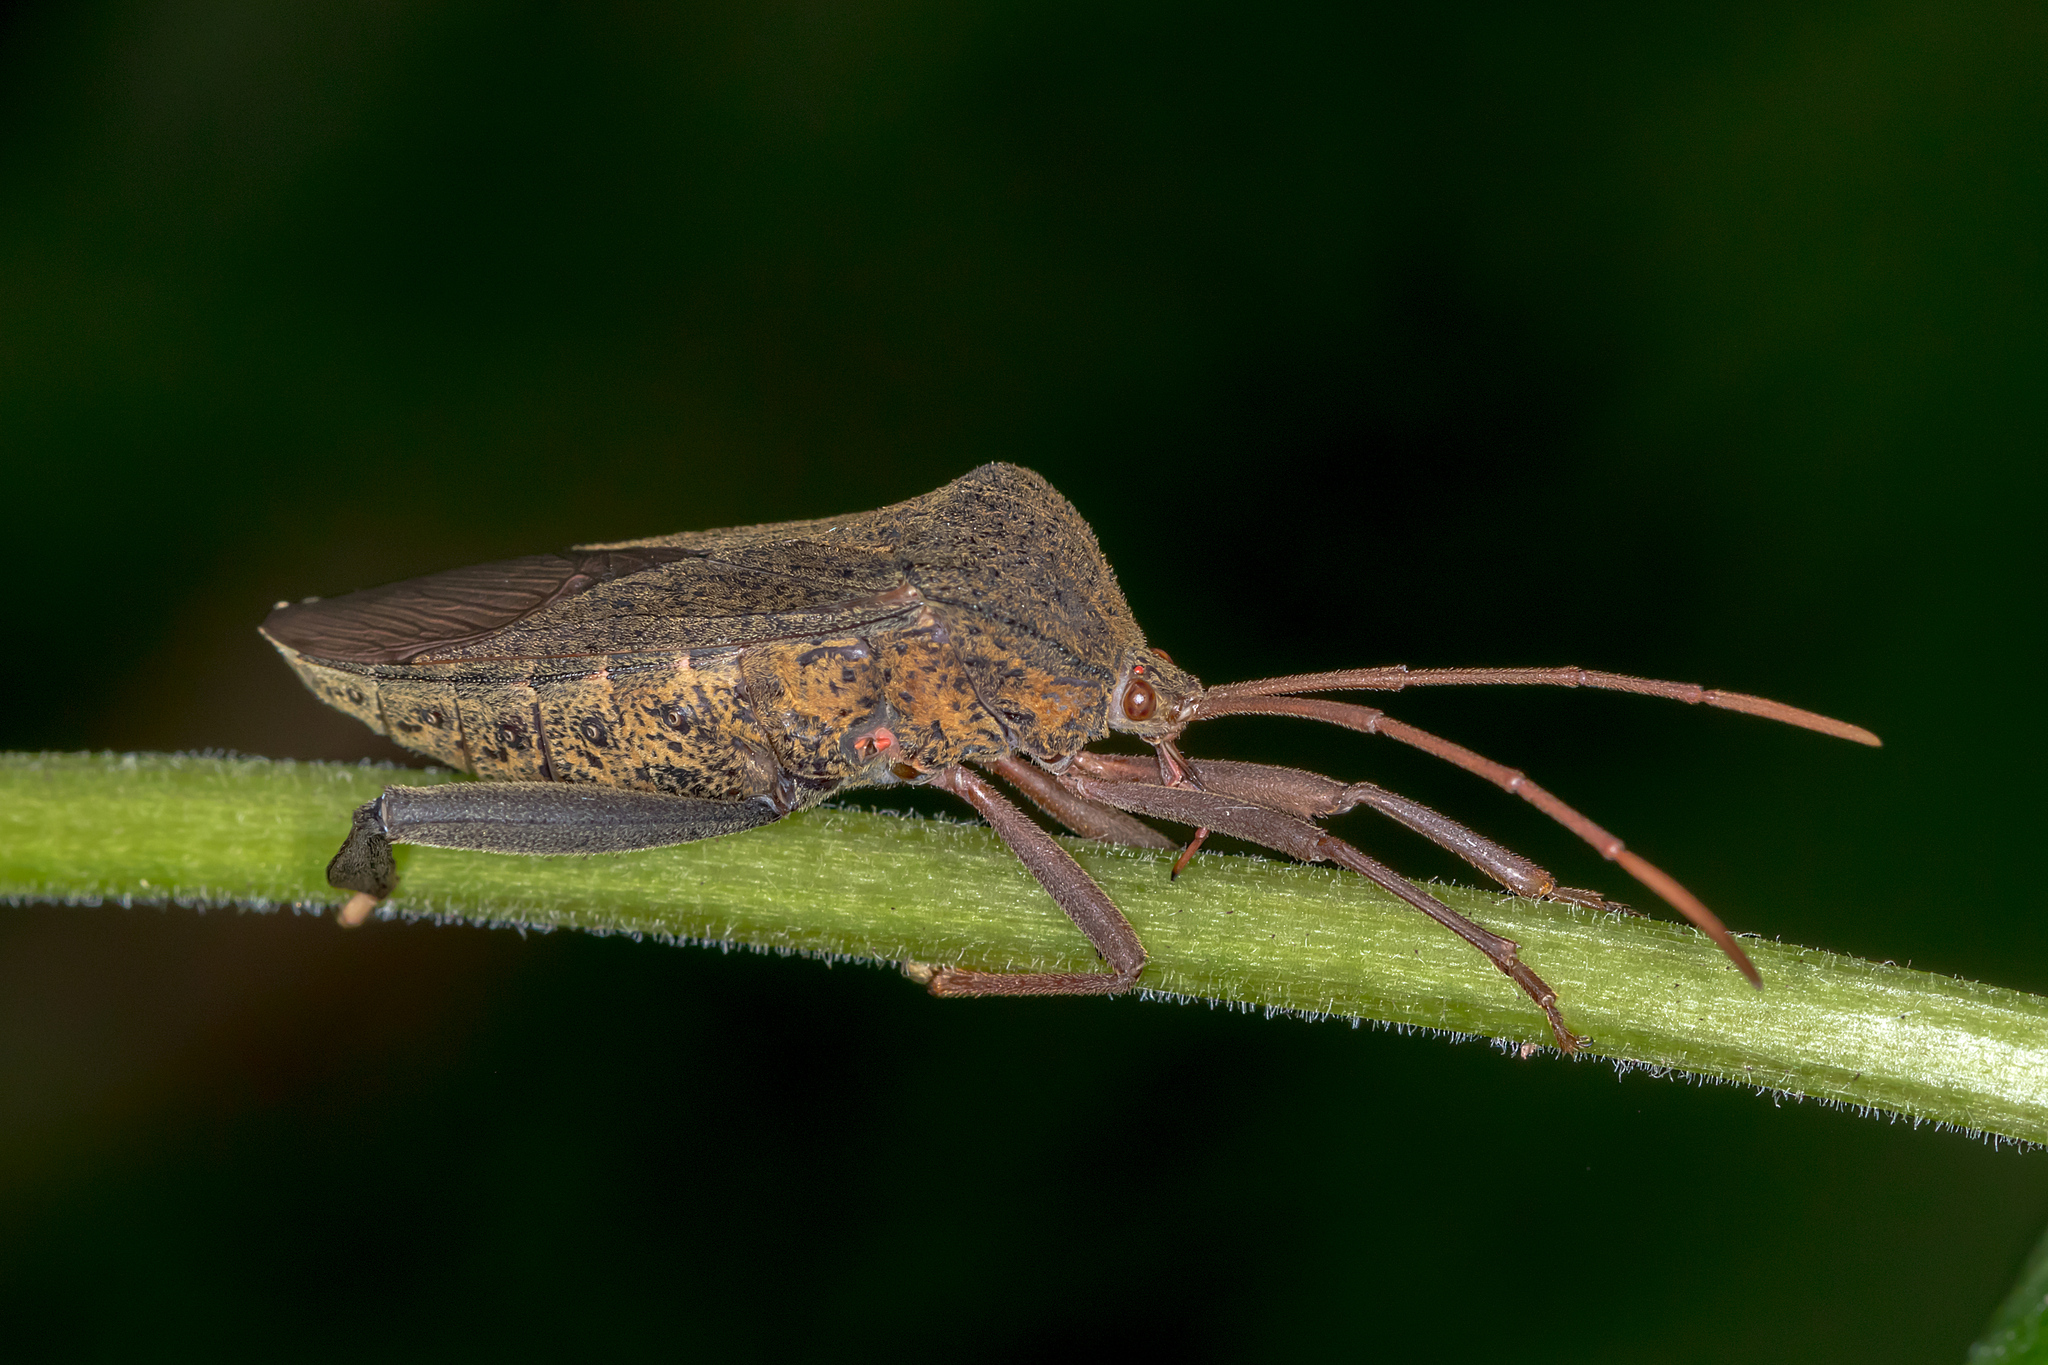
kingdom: Animalia
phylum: Arthropoda
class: Insecta
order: Hemiptera
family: Coreidae
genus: Pternistria
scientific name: Pternistria bispina
